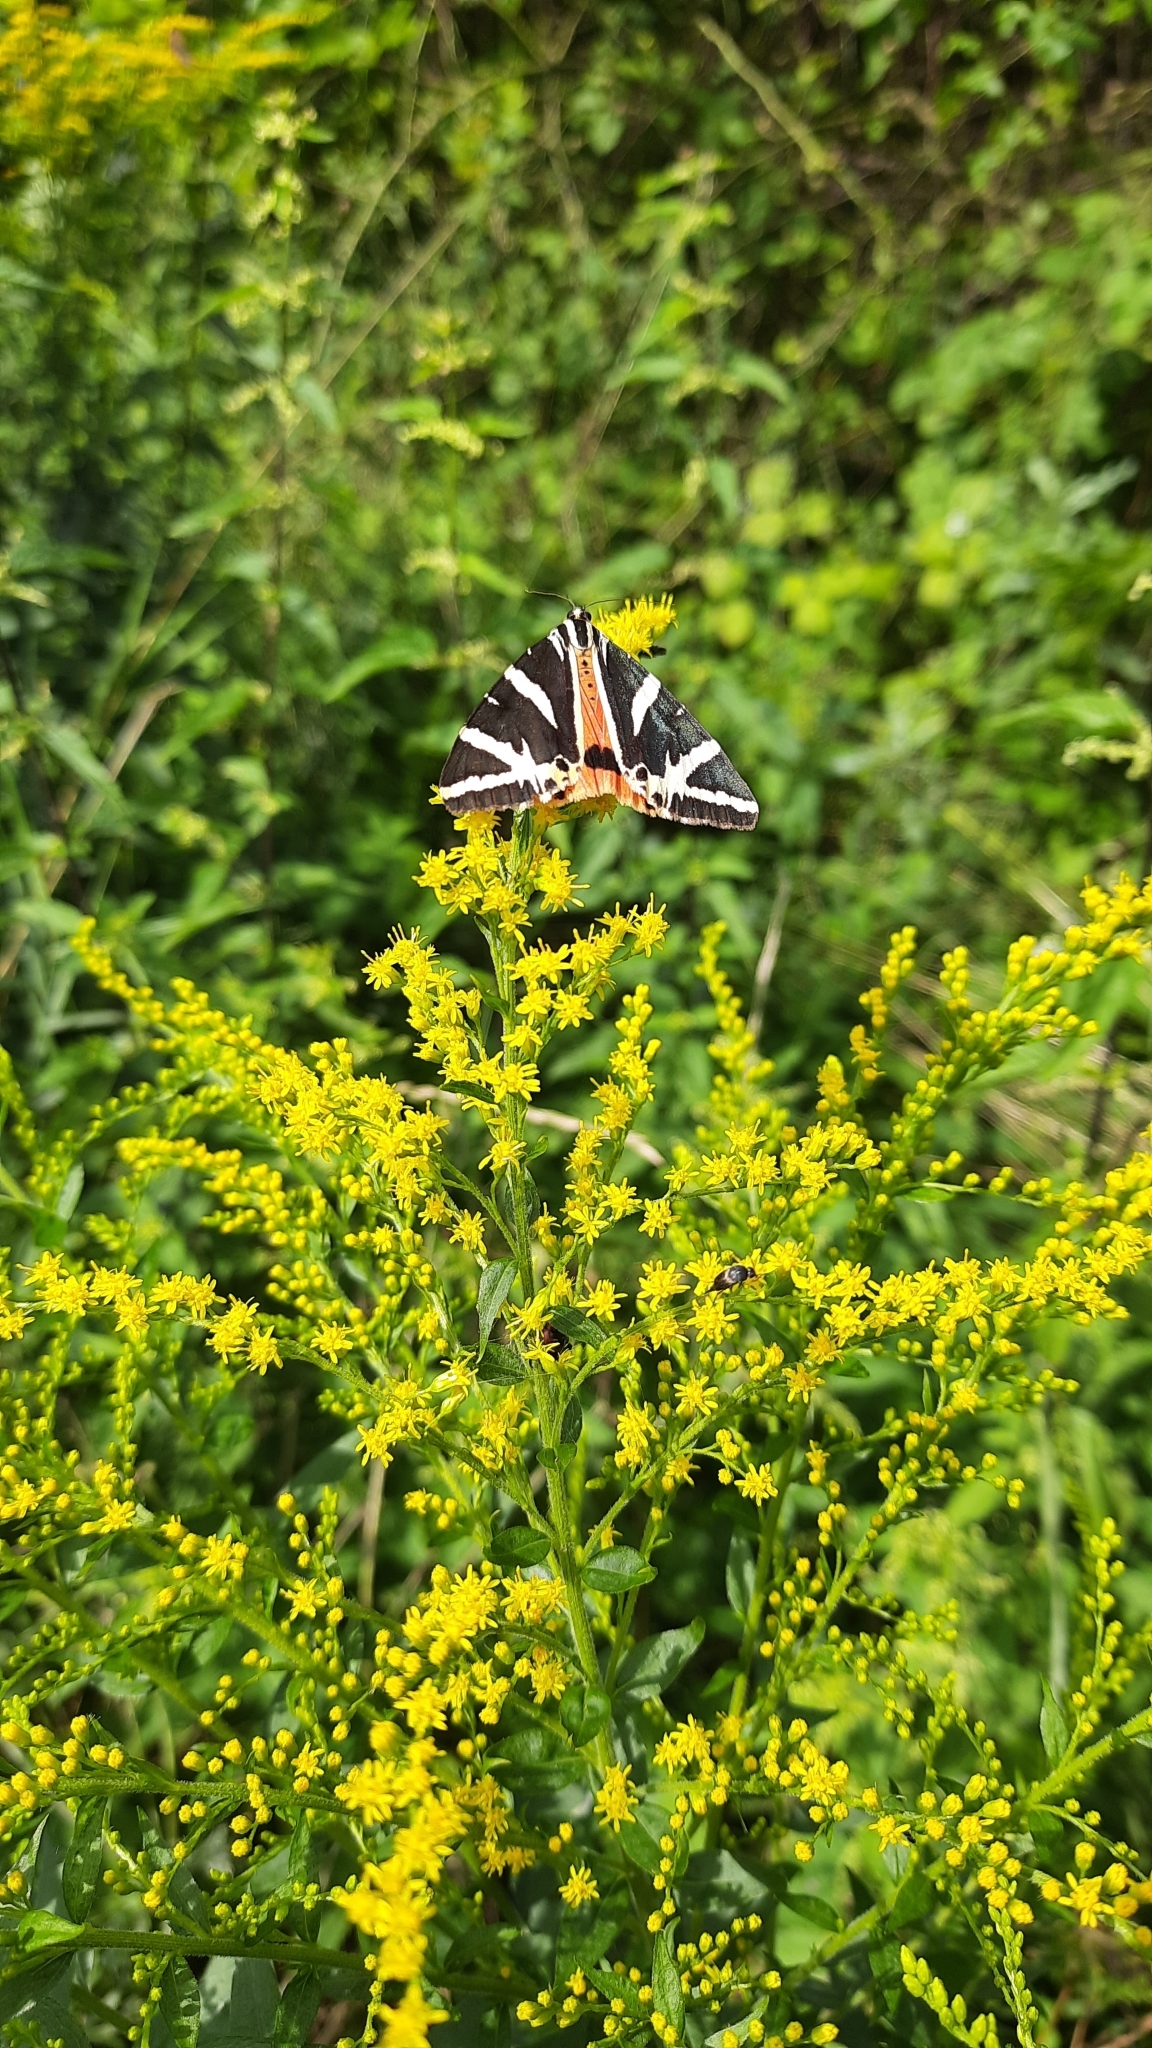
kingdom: Animalia
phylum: Arthropoda
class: Insecta
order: Lepidoptera
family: Erebidae
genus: Euplagia
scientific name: Euplagia quadripunctaria
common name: Jersey tiger
